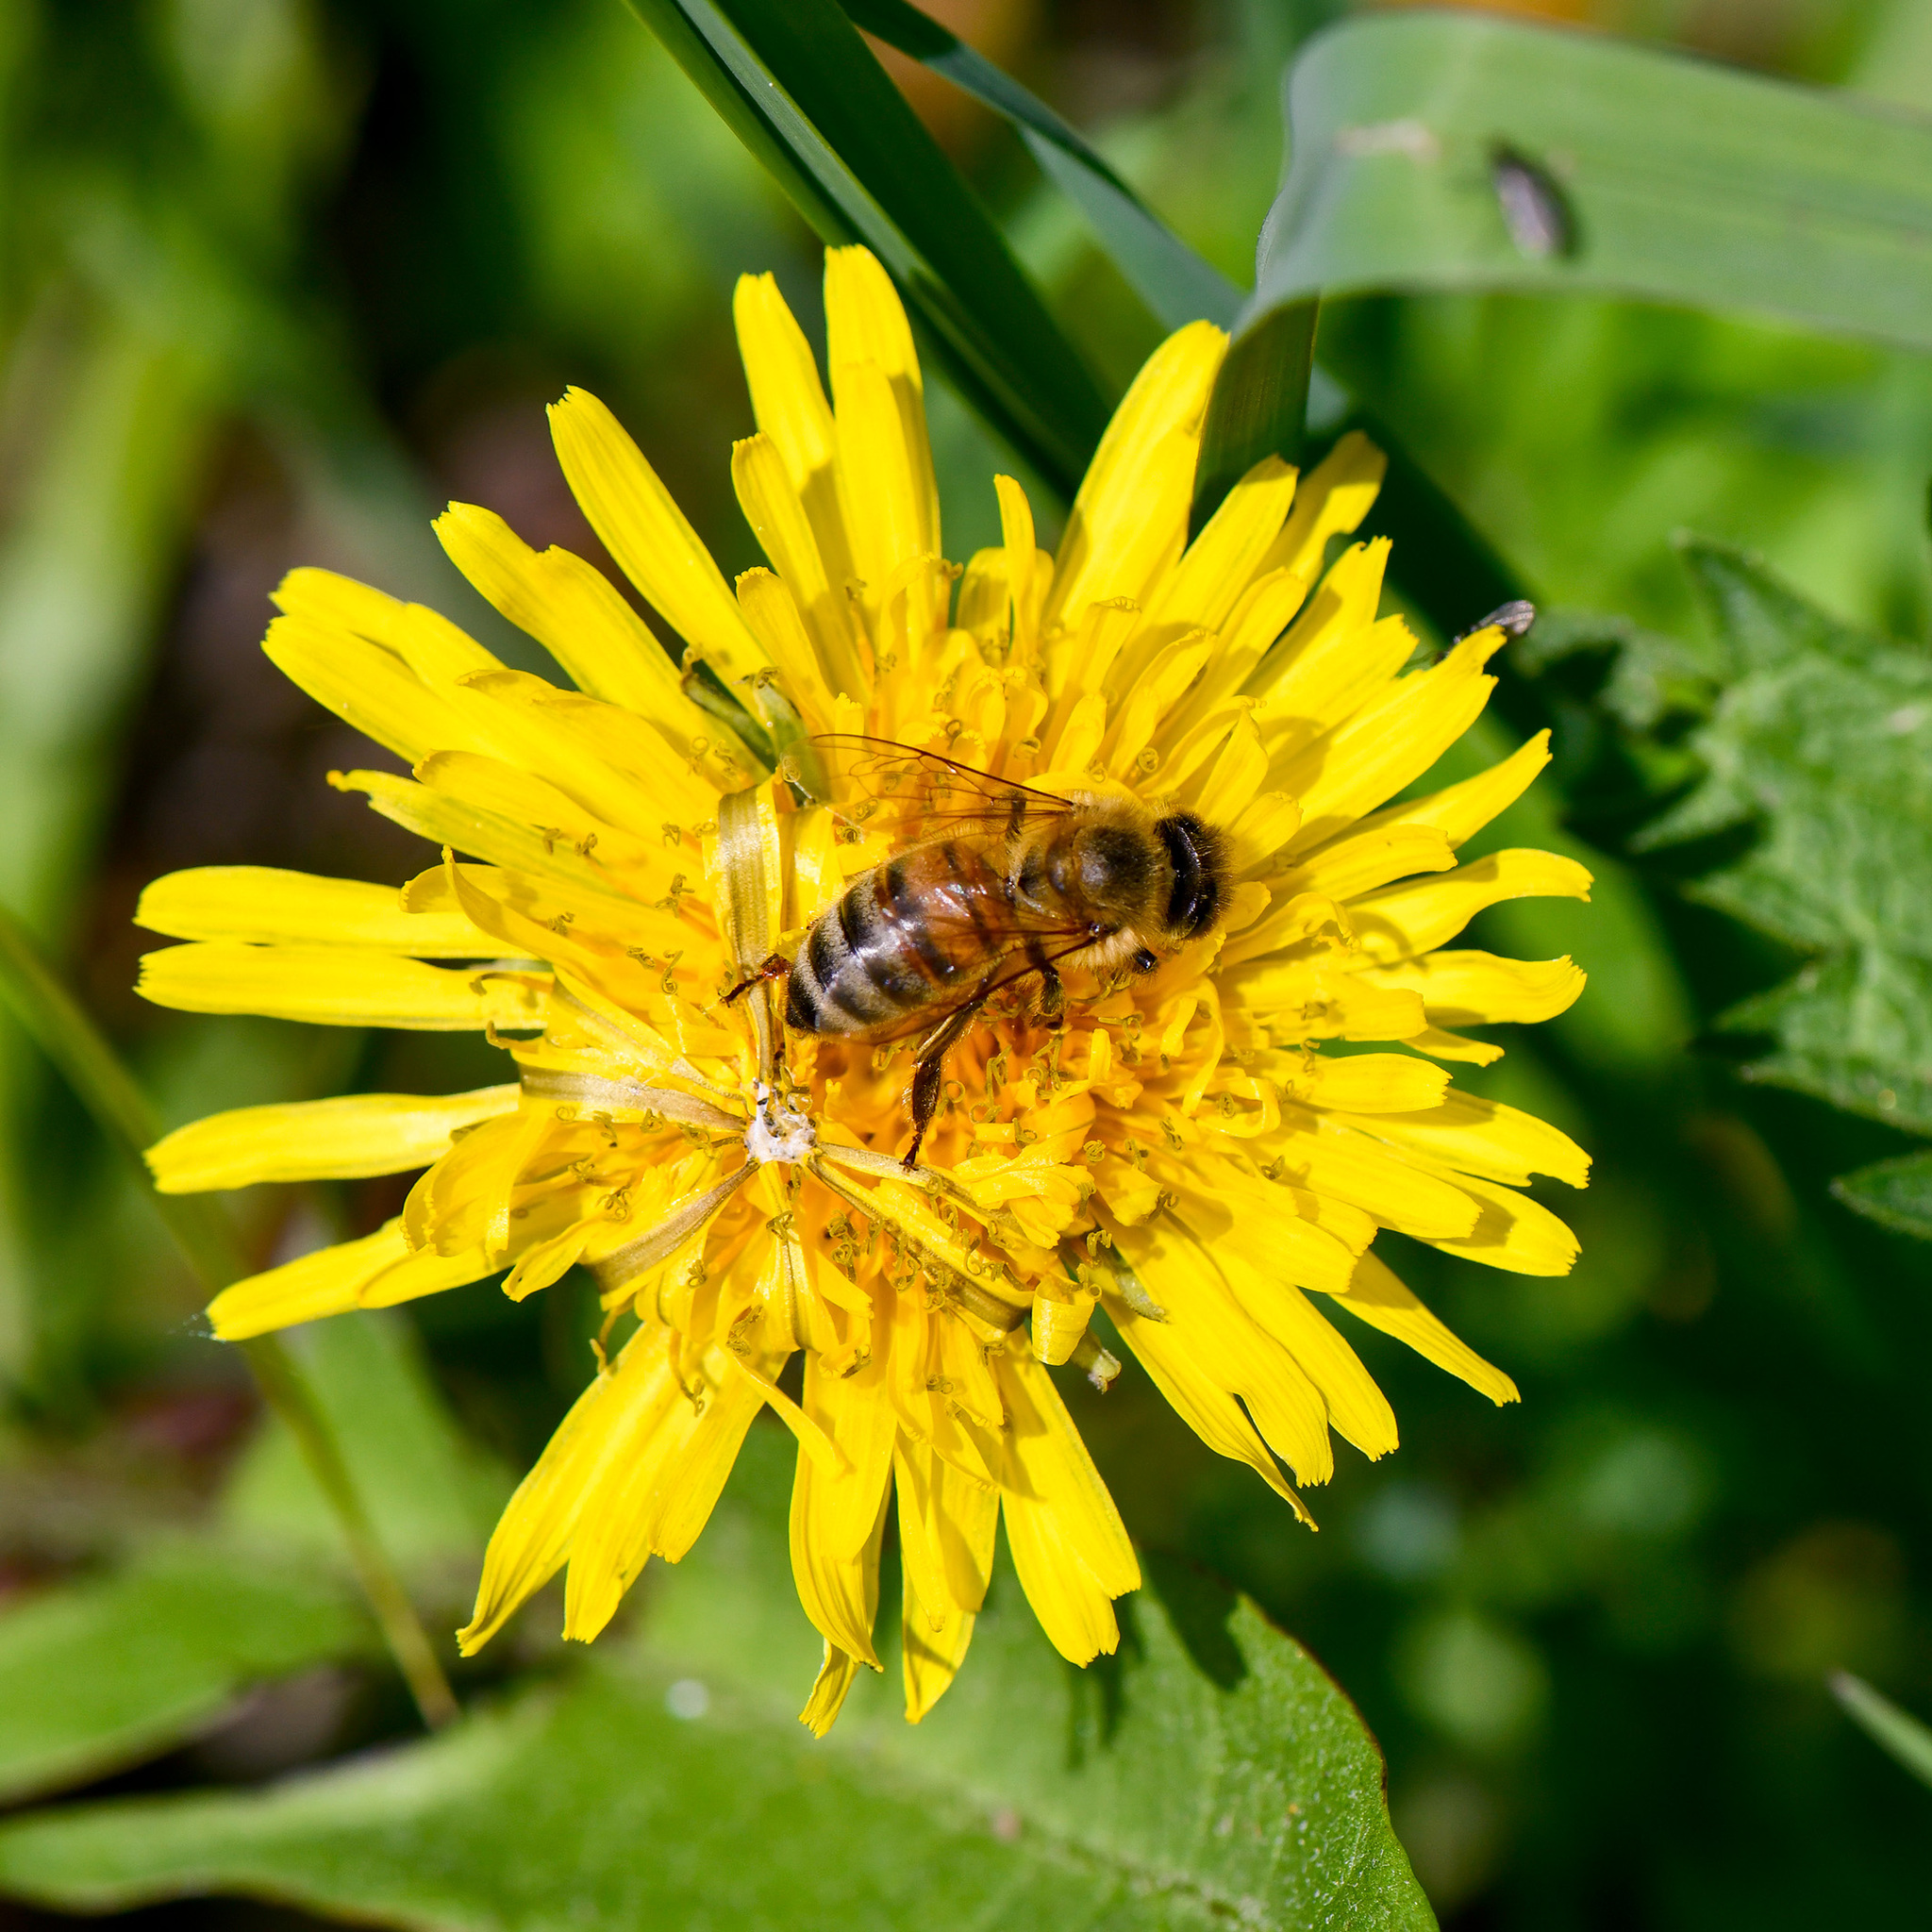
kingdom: Animalia
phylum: Arthropoda
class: Insecta
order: Hymenoptera
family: Apidae
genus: Apis
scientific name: Apis mellifera
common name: Honey bee
